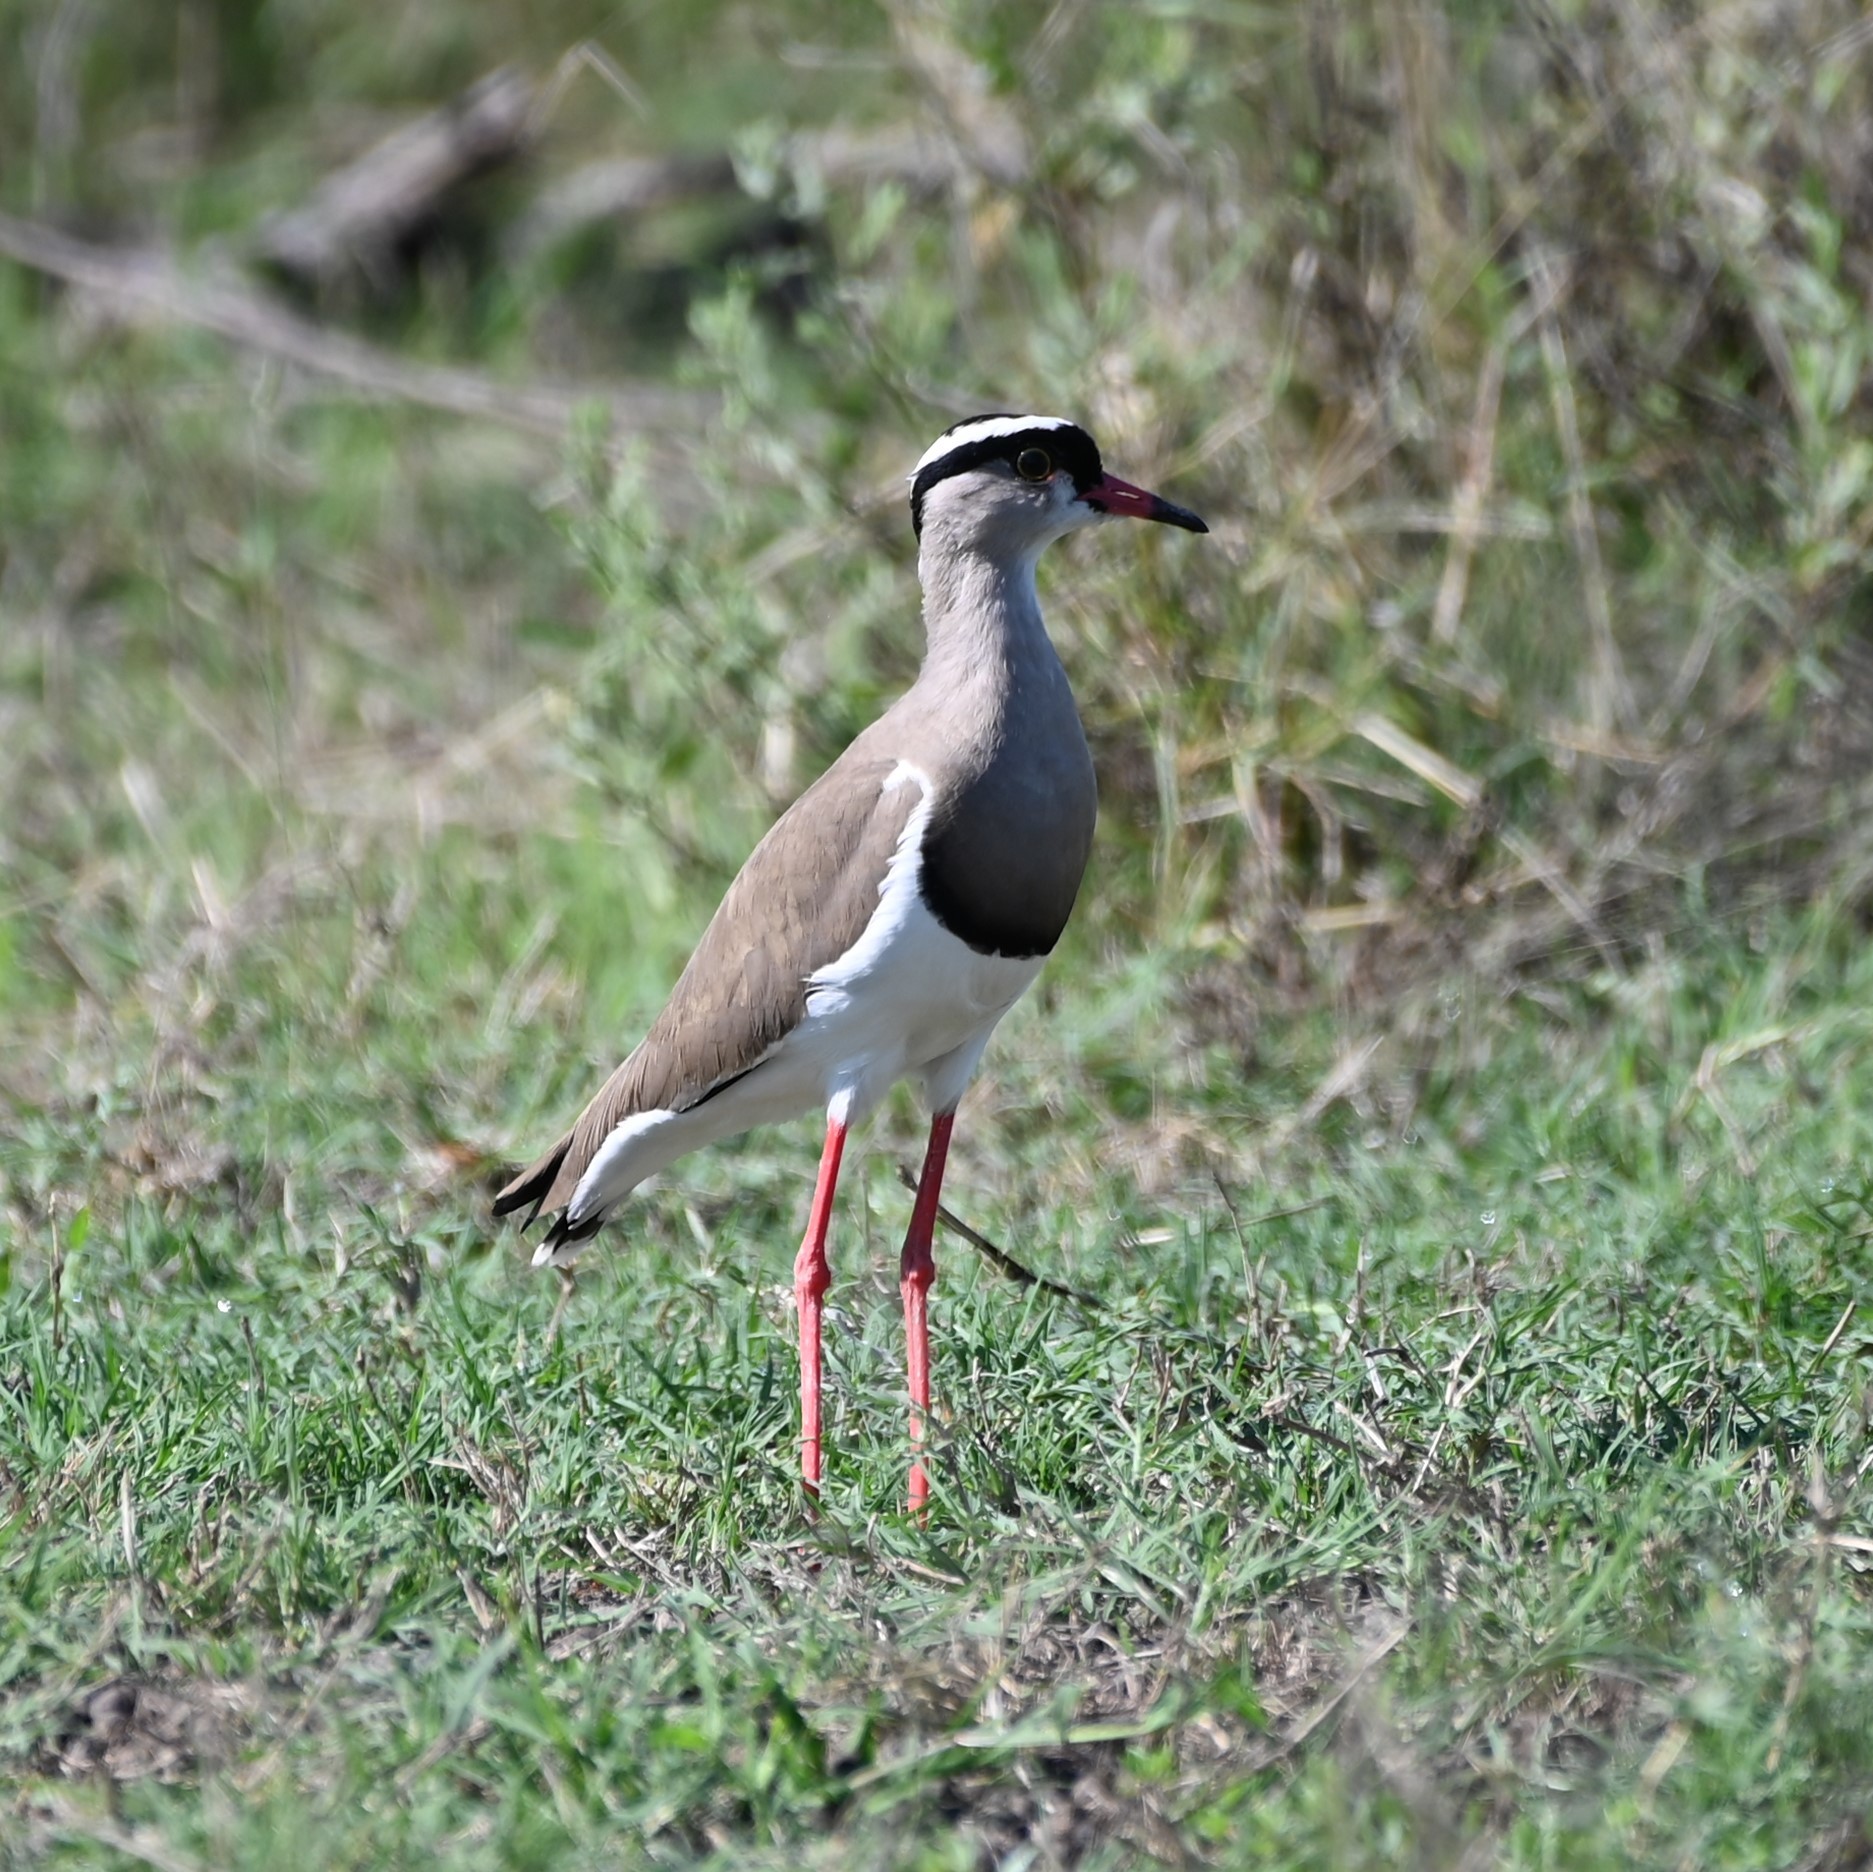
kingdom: Animalia
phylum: Chordata
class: Aves
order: Charadriiformes
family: Charadriidae
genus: Vanellus
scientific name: Vanellus coronatus
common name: Crowned lapwing
